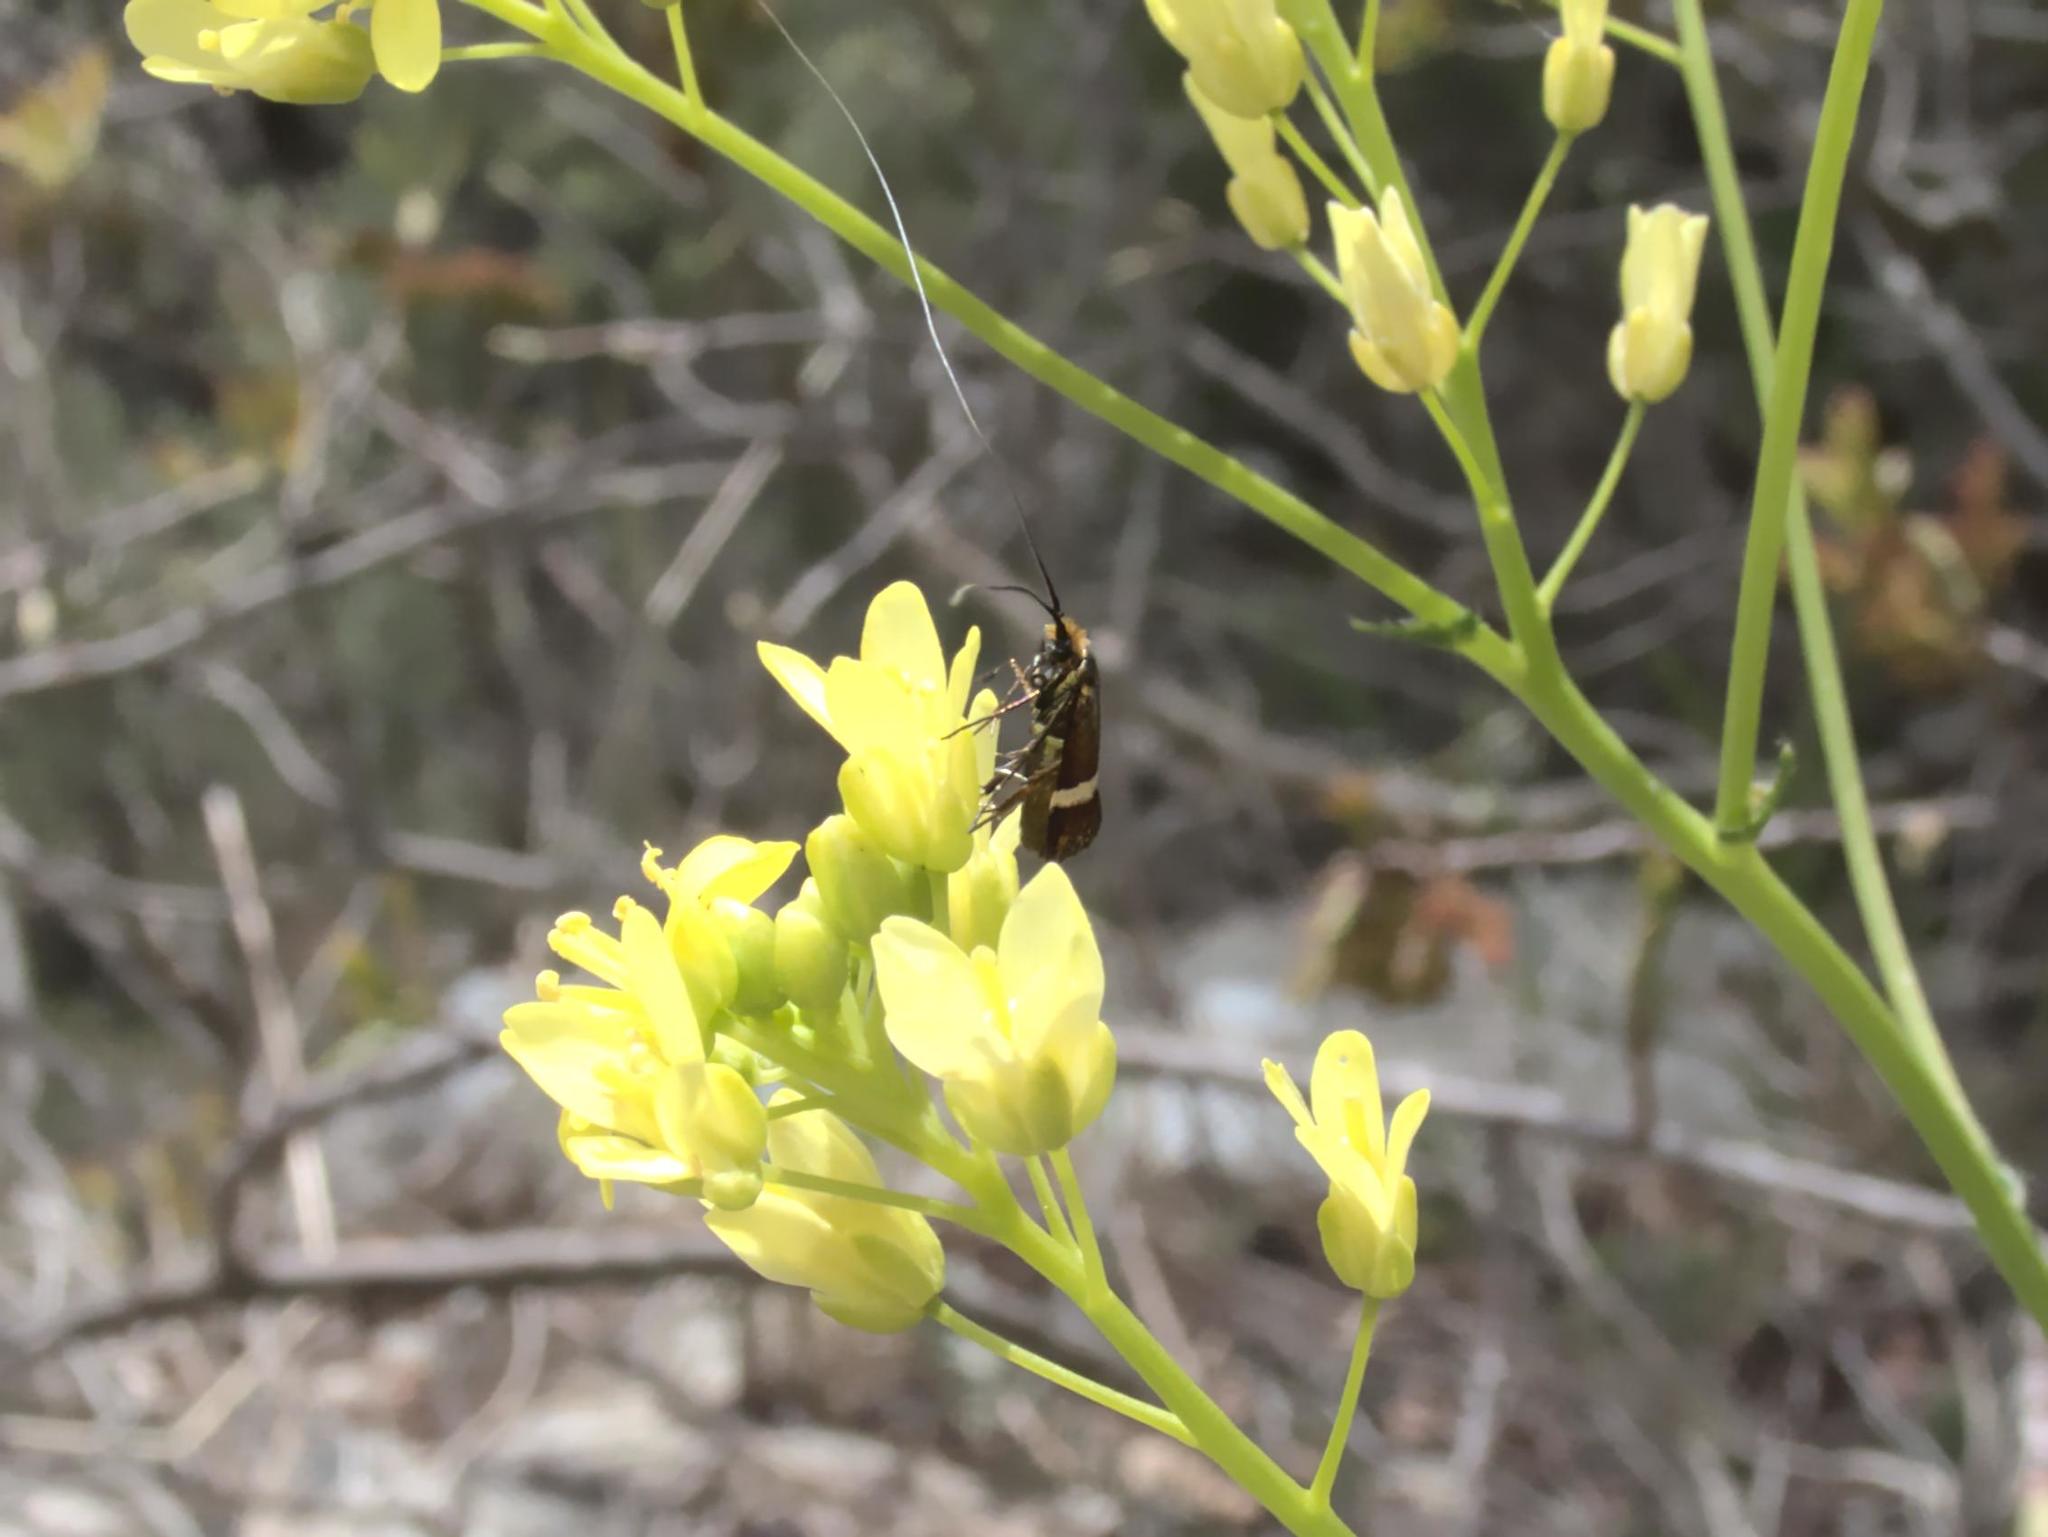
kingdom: Animalia
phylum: Arthropoda
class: Insecta
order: Lepidoptera
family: Adelidae
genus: Adela
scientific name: Adela australis
